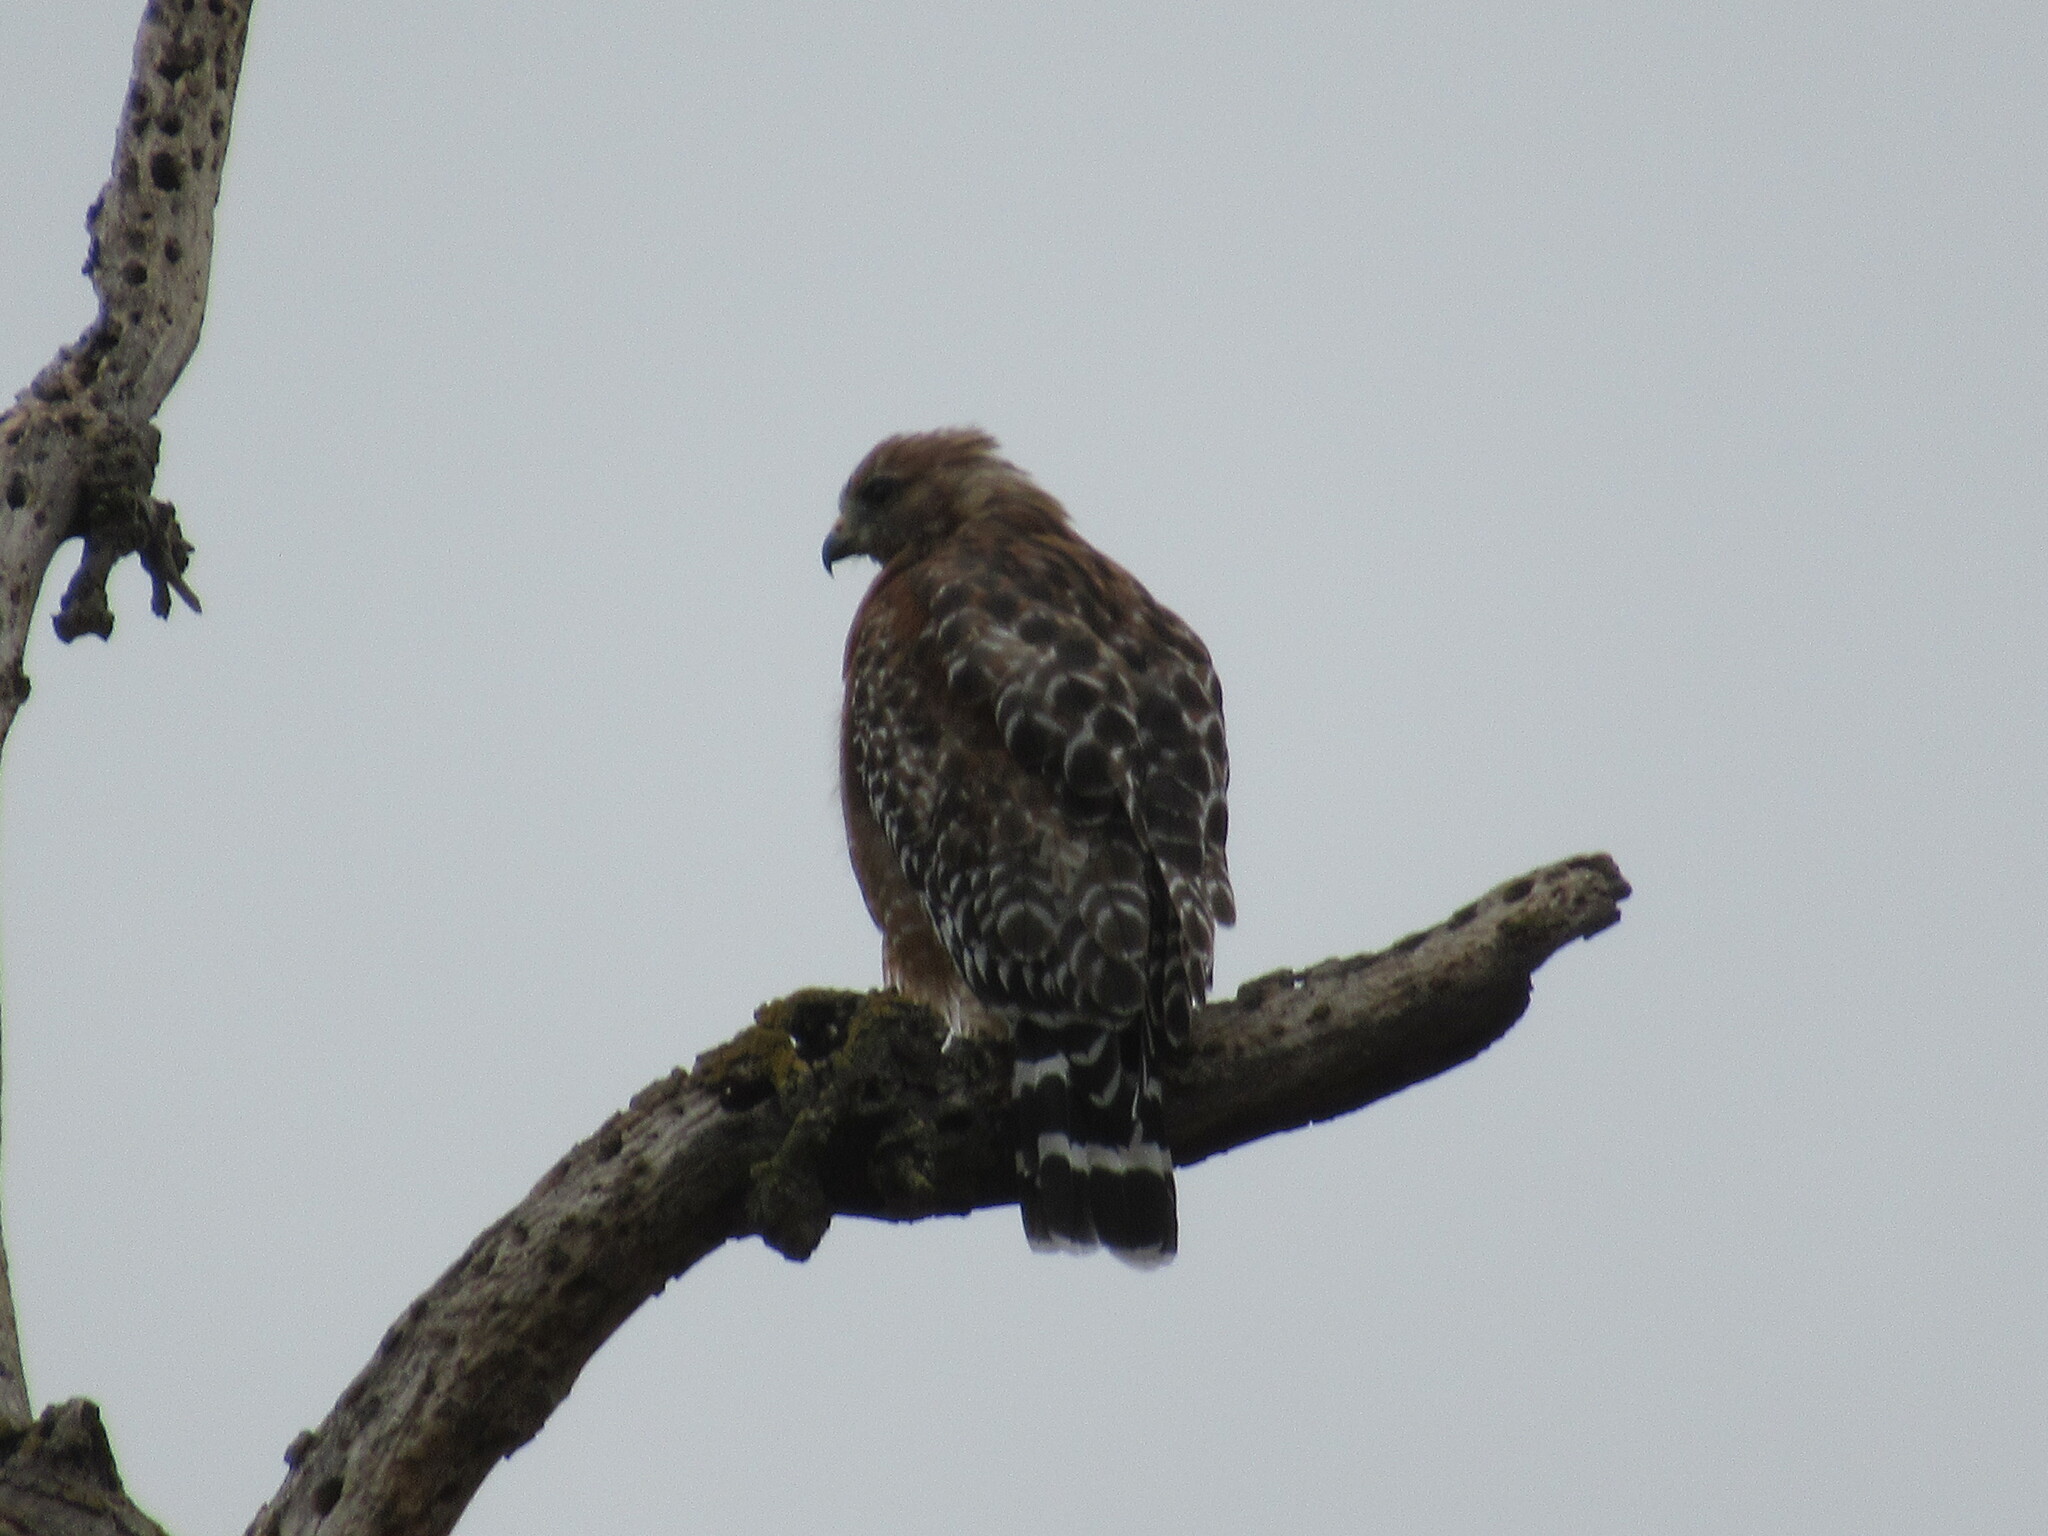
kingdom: Animalia
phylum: Chordata
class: Aves
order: Accipitriformes
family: Accipitridae
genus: Buteo
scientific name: Buteo lineatus
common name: Red-shouldered hawk
